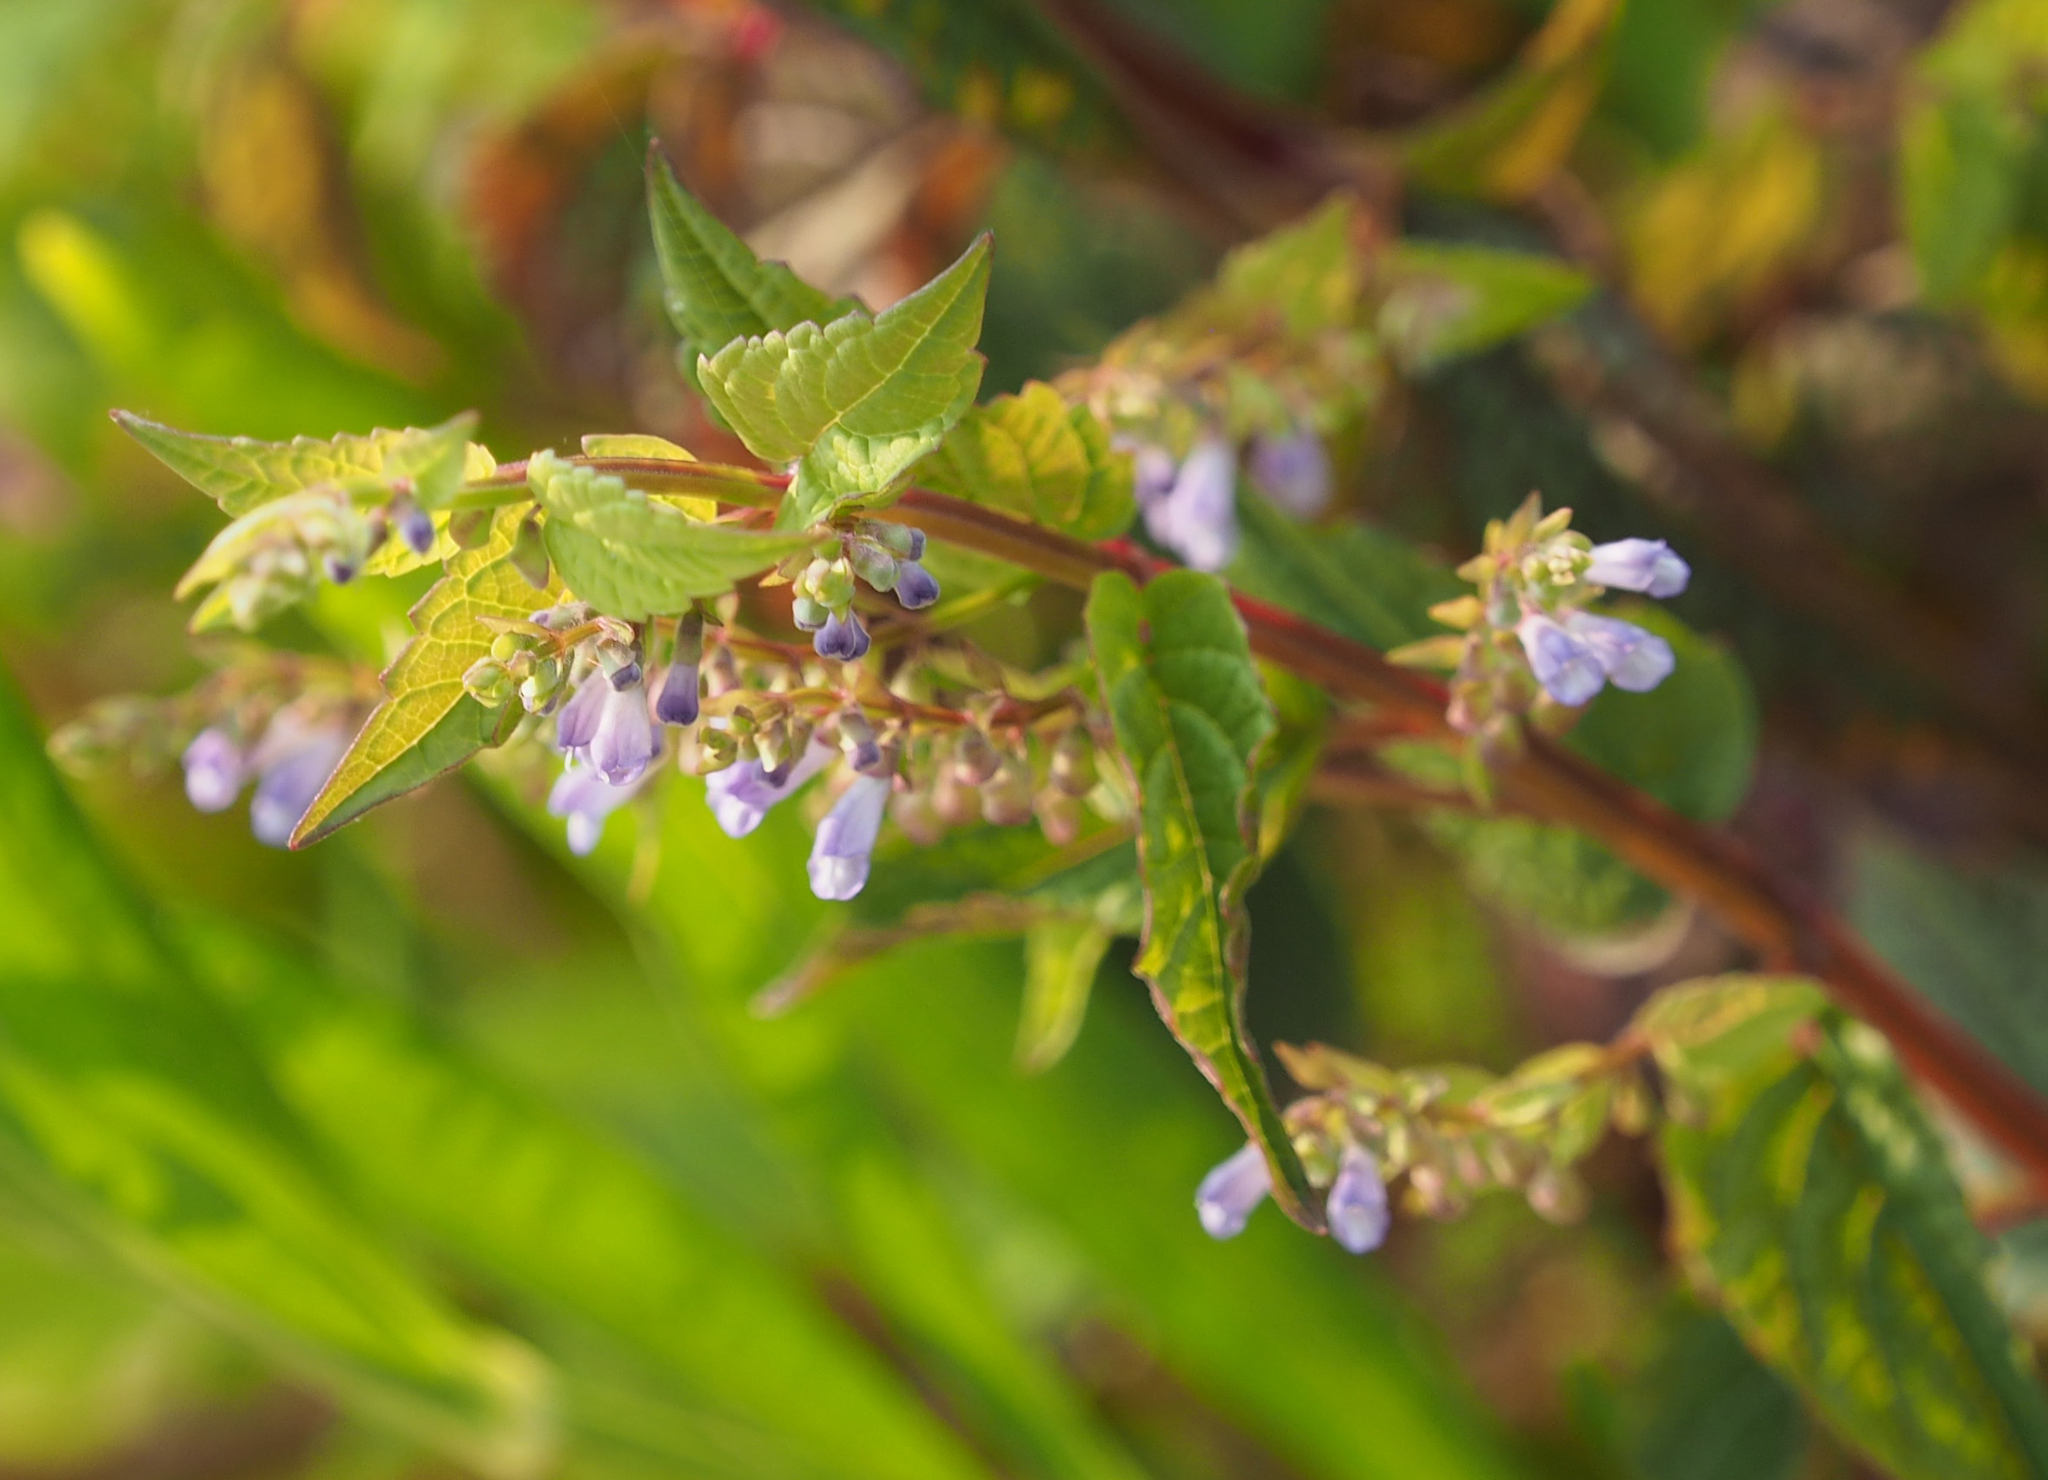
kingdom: Plantae
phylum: Tracheophyta
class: Magnoliopsida
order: Lamiales
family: Lamiaceae
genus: Scutellaria
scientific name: Scutellaria lateriflora
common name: Blue skullcap
